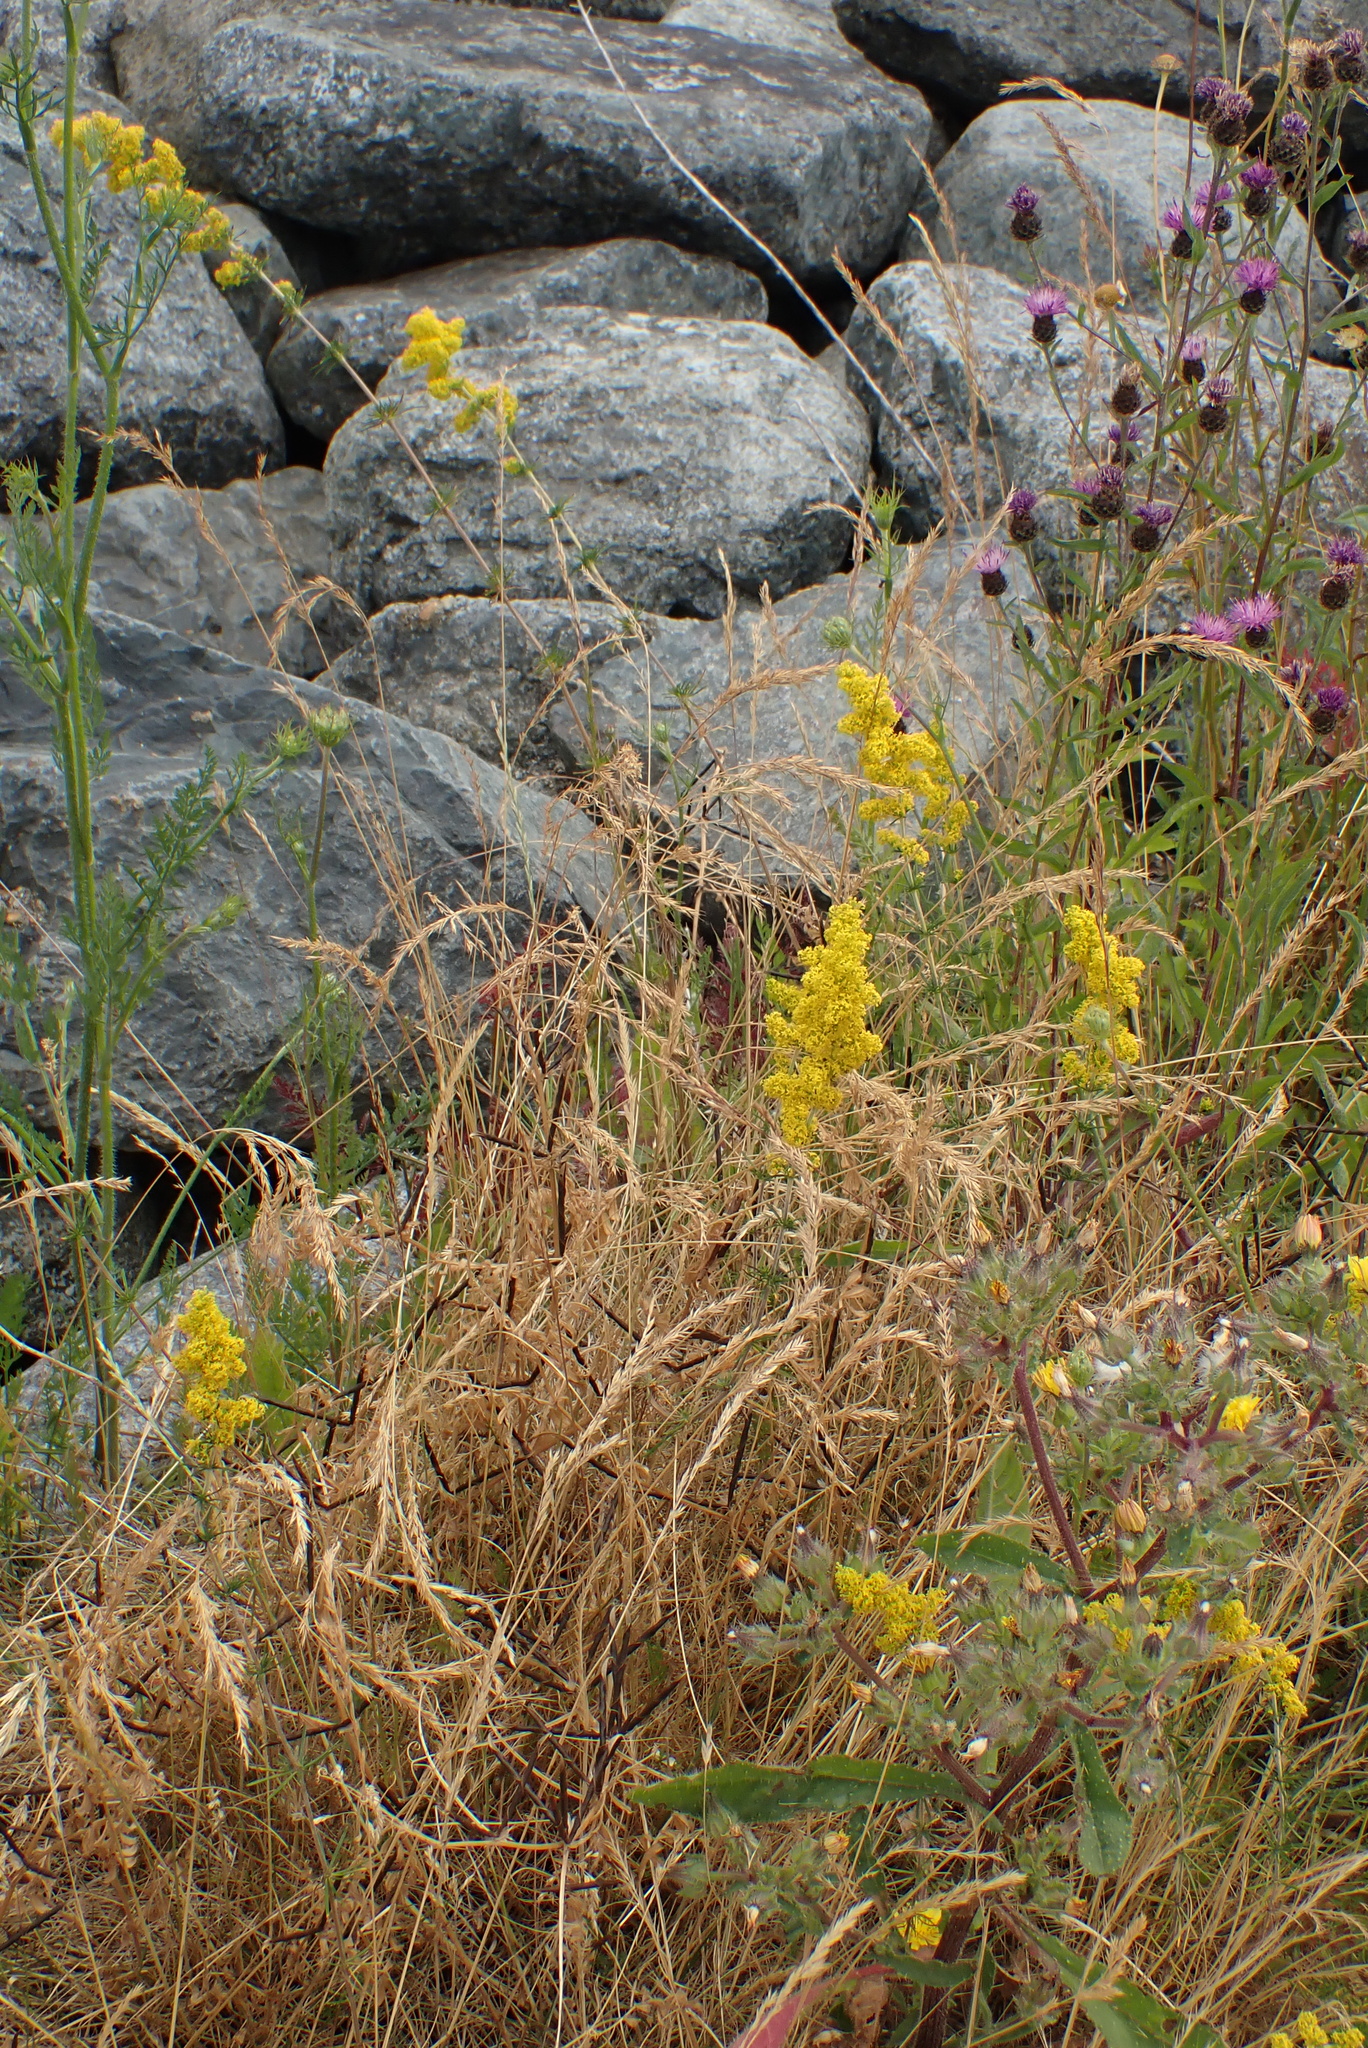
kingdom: Plantae
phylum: Tracheophyta
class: Magnoliopsida
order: Gentianales
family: Rubiaceae
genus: Galium
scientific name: Galium verum
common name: Lady's bedstraw
